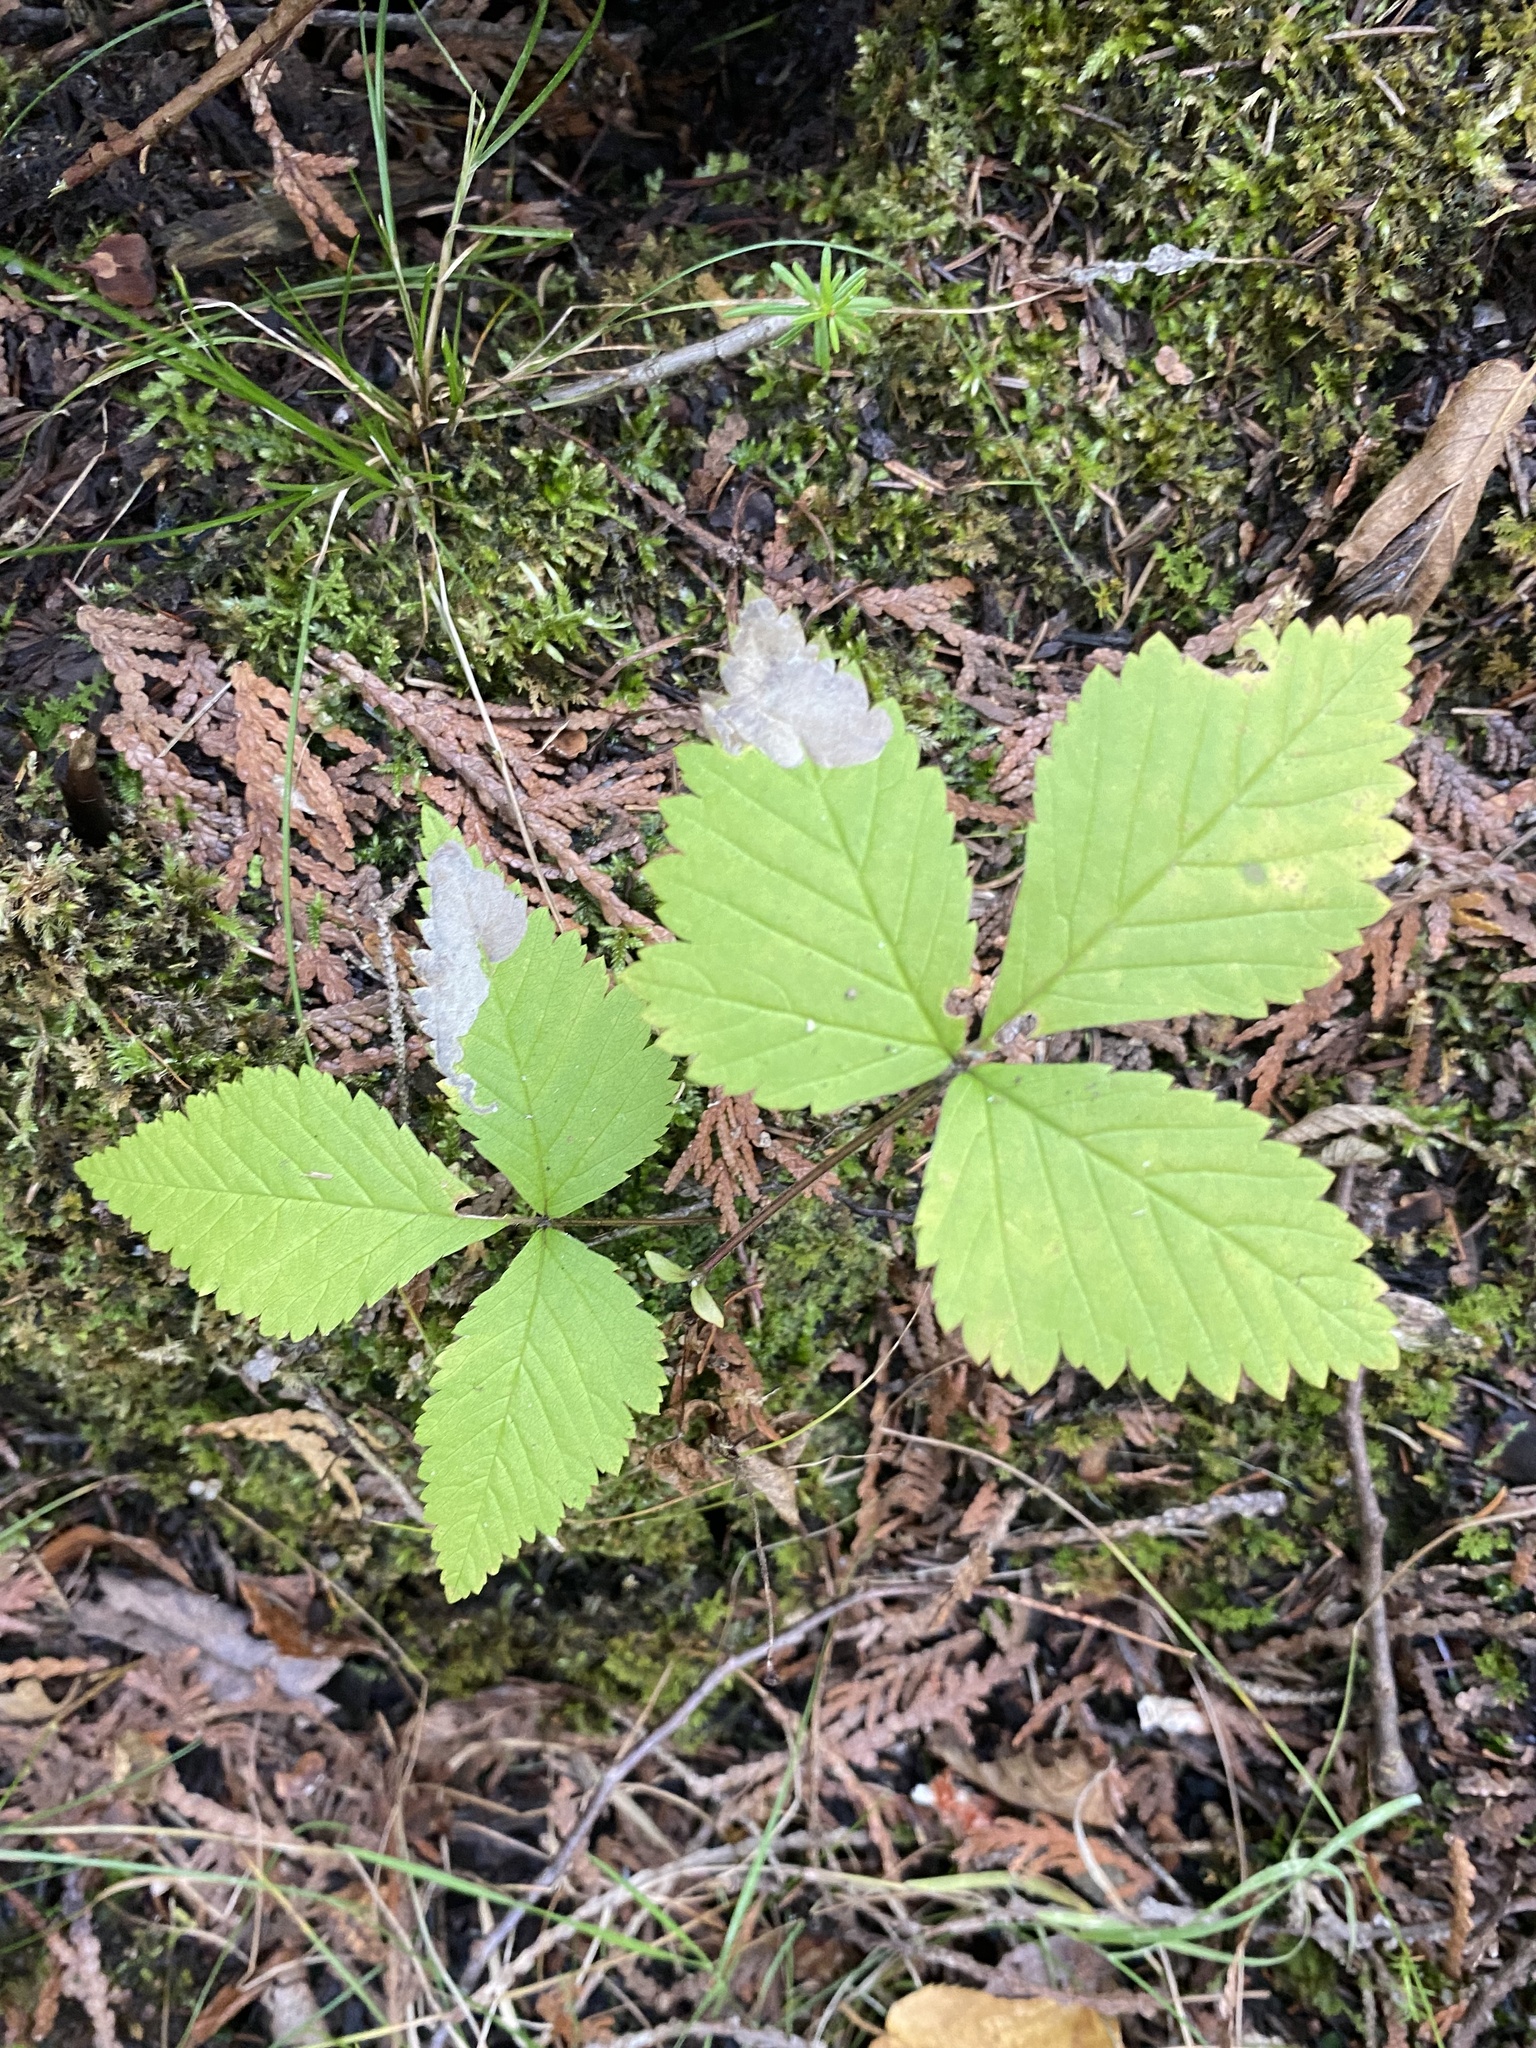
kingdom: Plantae
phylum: Tracheophyta
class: Magnoliopsida
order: Rosales
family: Rosaceae
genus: Rubus
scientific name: Rubus pubescens
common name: Dwarf raspberry
